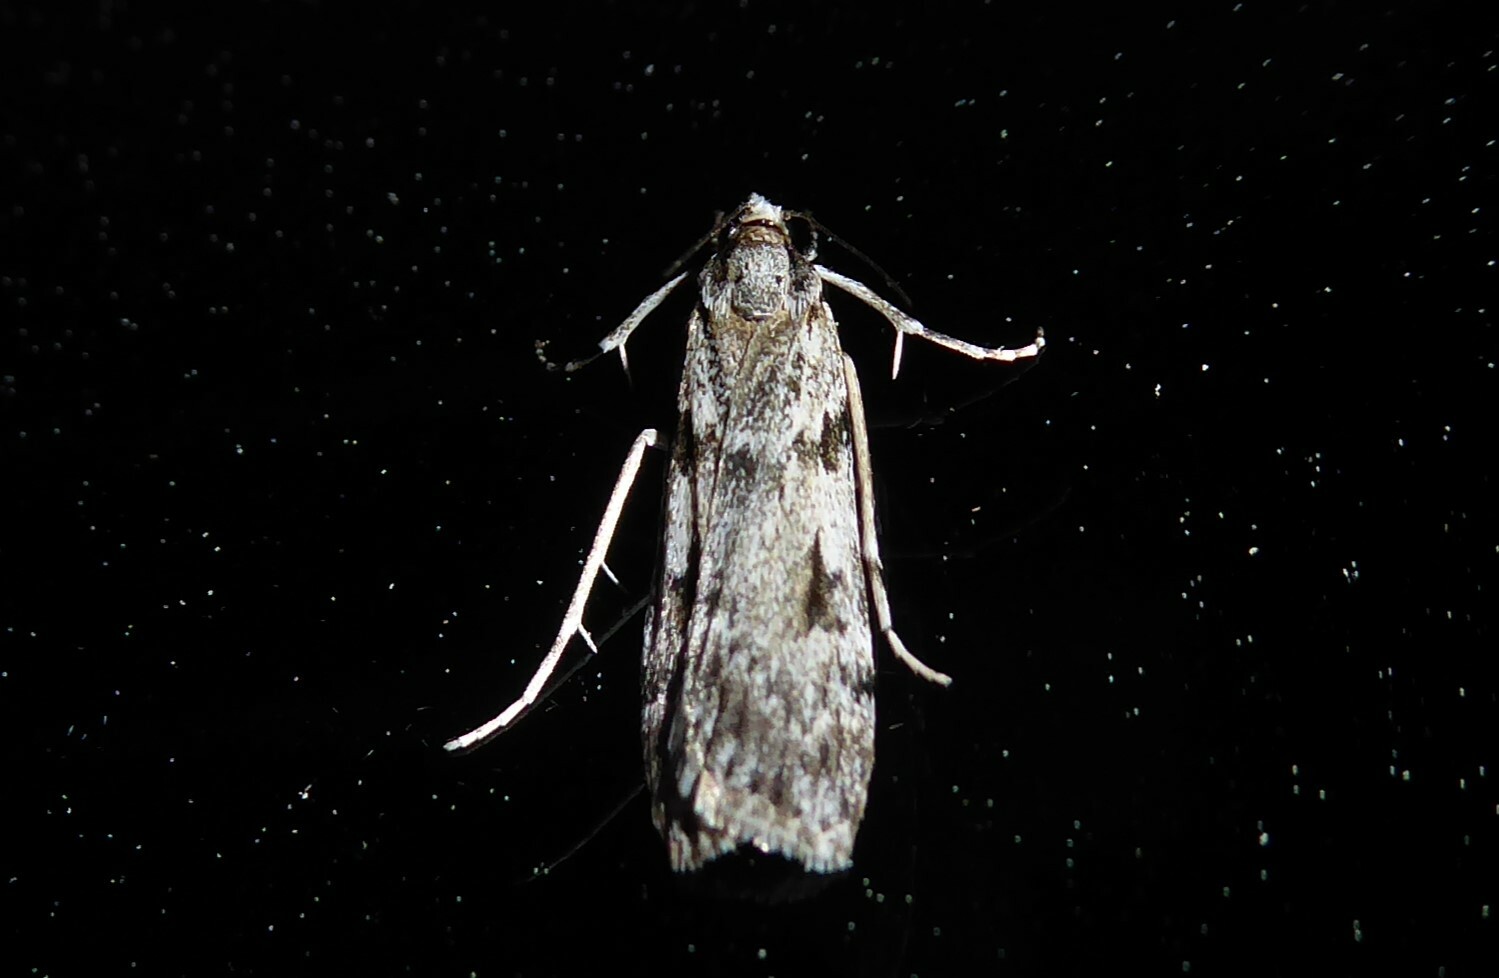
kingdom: Animalia
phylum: Arthropoda
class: Insecta
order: Lepidoptera
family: Crambidae
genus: Scoparia
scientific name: Scoparia halopis
